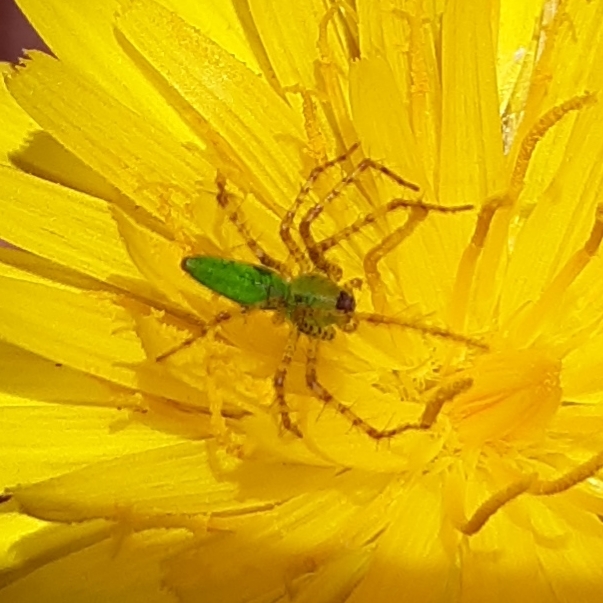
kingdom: Animalia
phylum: Arthropoda
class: Arachnida
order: Araneae
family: Oxyopidae
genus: Peucetia
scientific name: Peucetia viridans
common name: Lynx spiders
